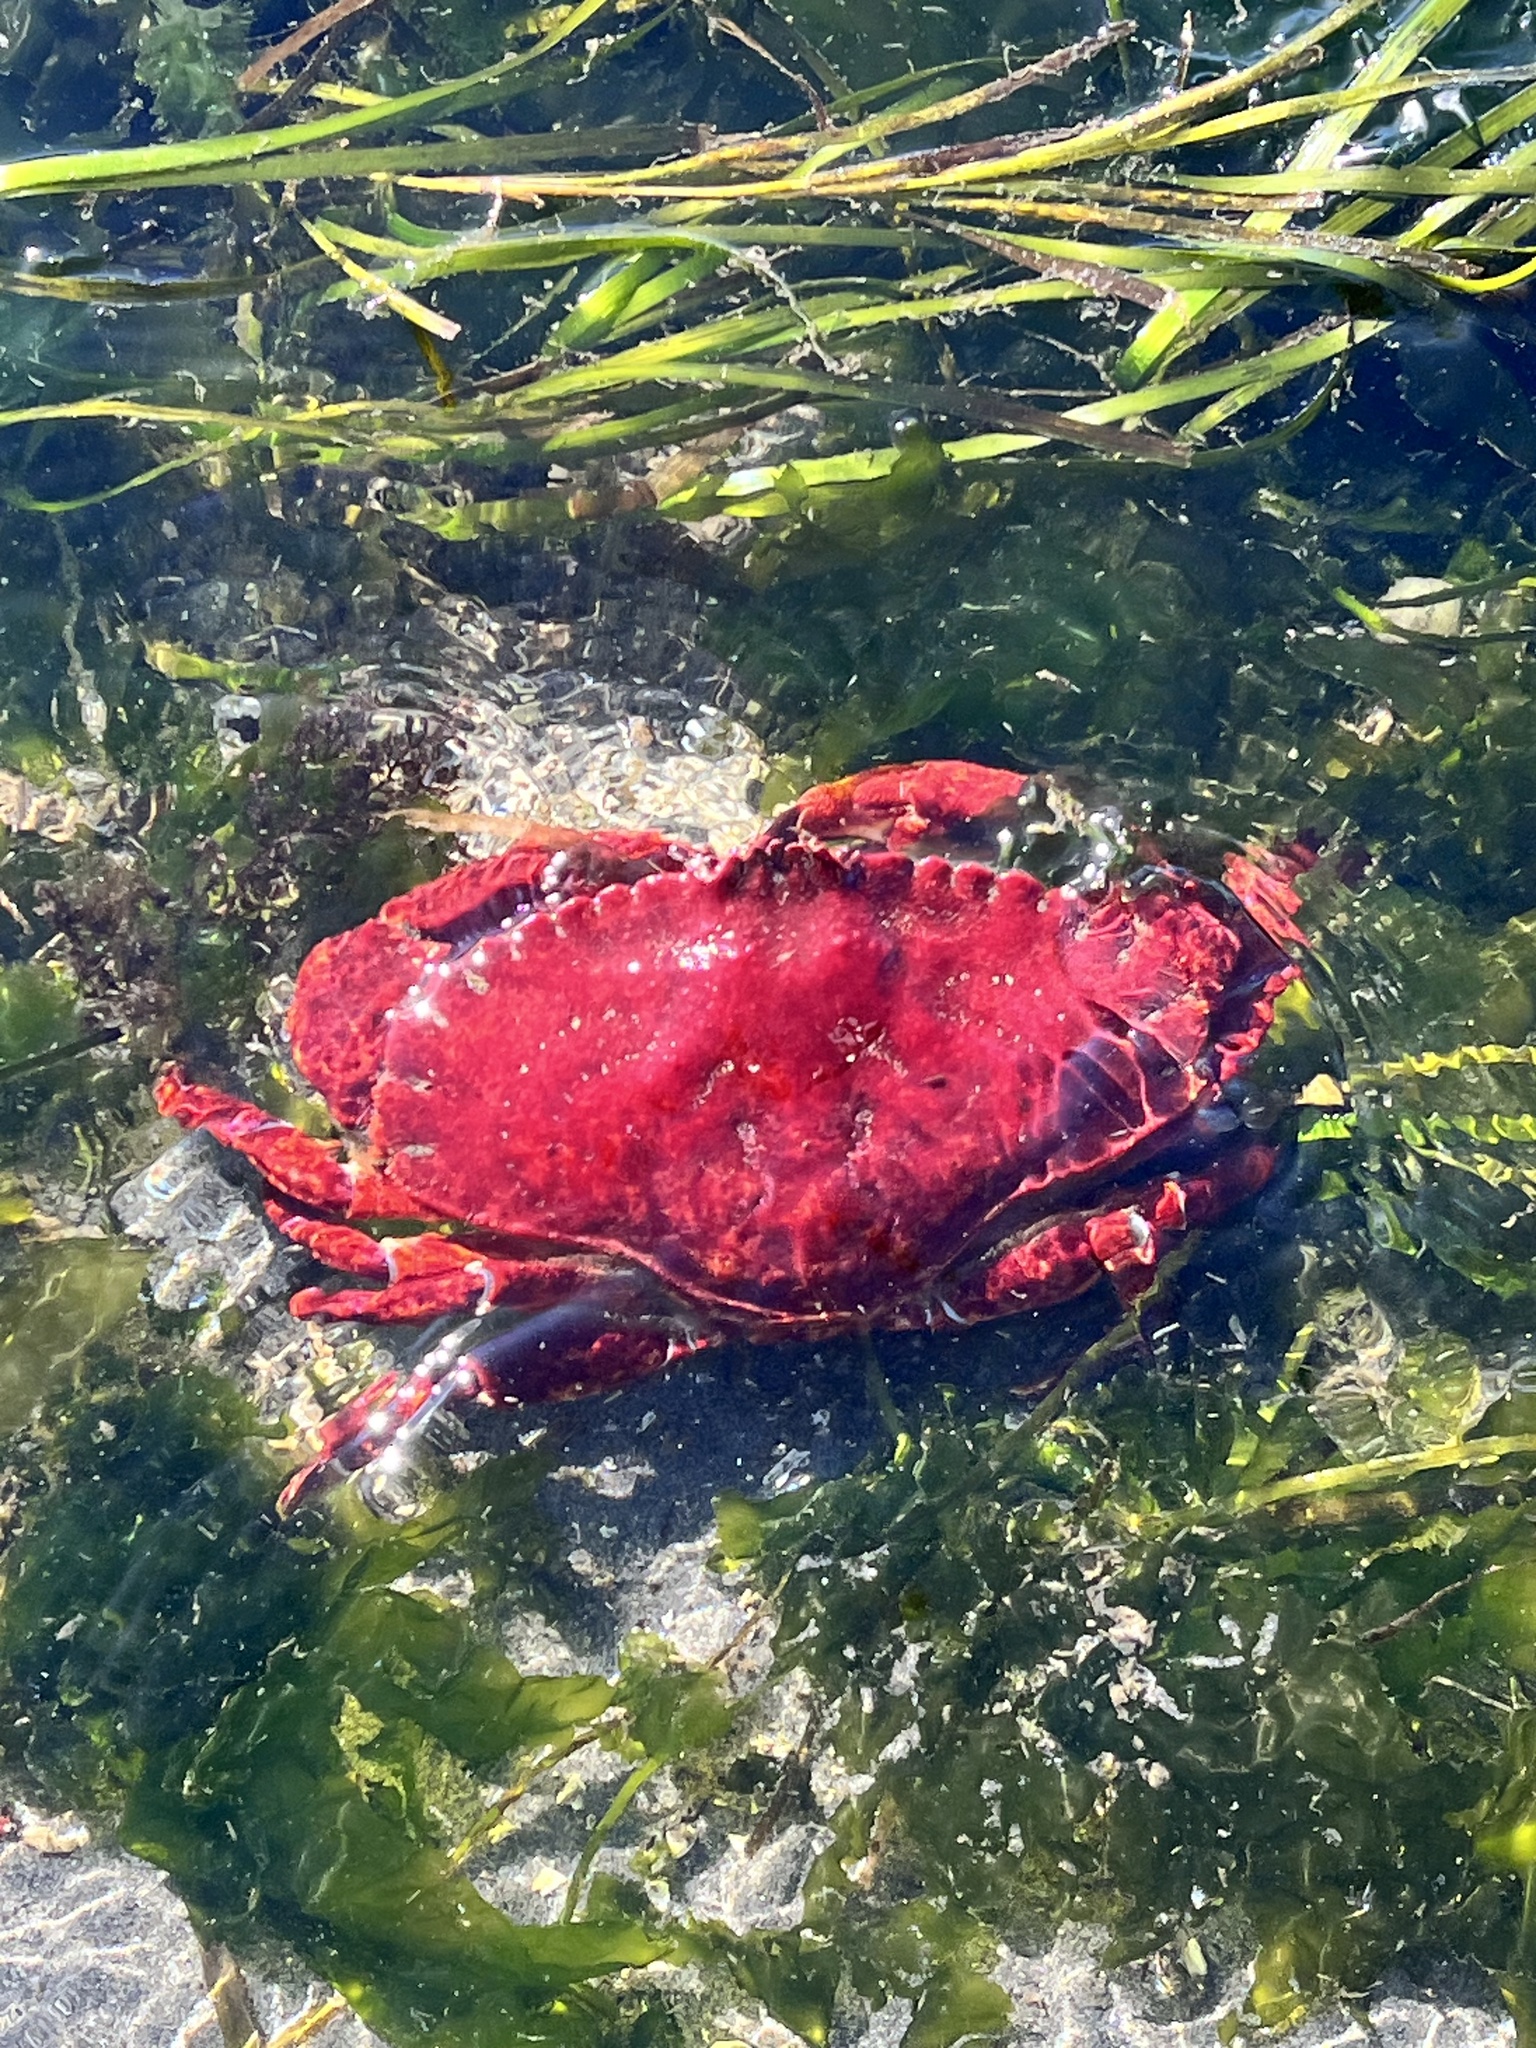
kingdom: Animalia
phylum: Arthropoda
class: Malacostraca
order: Decapoda
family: Cancridae
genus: Cancer
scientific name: Cancer productus
